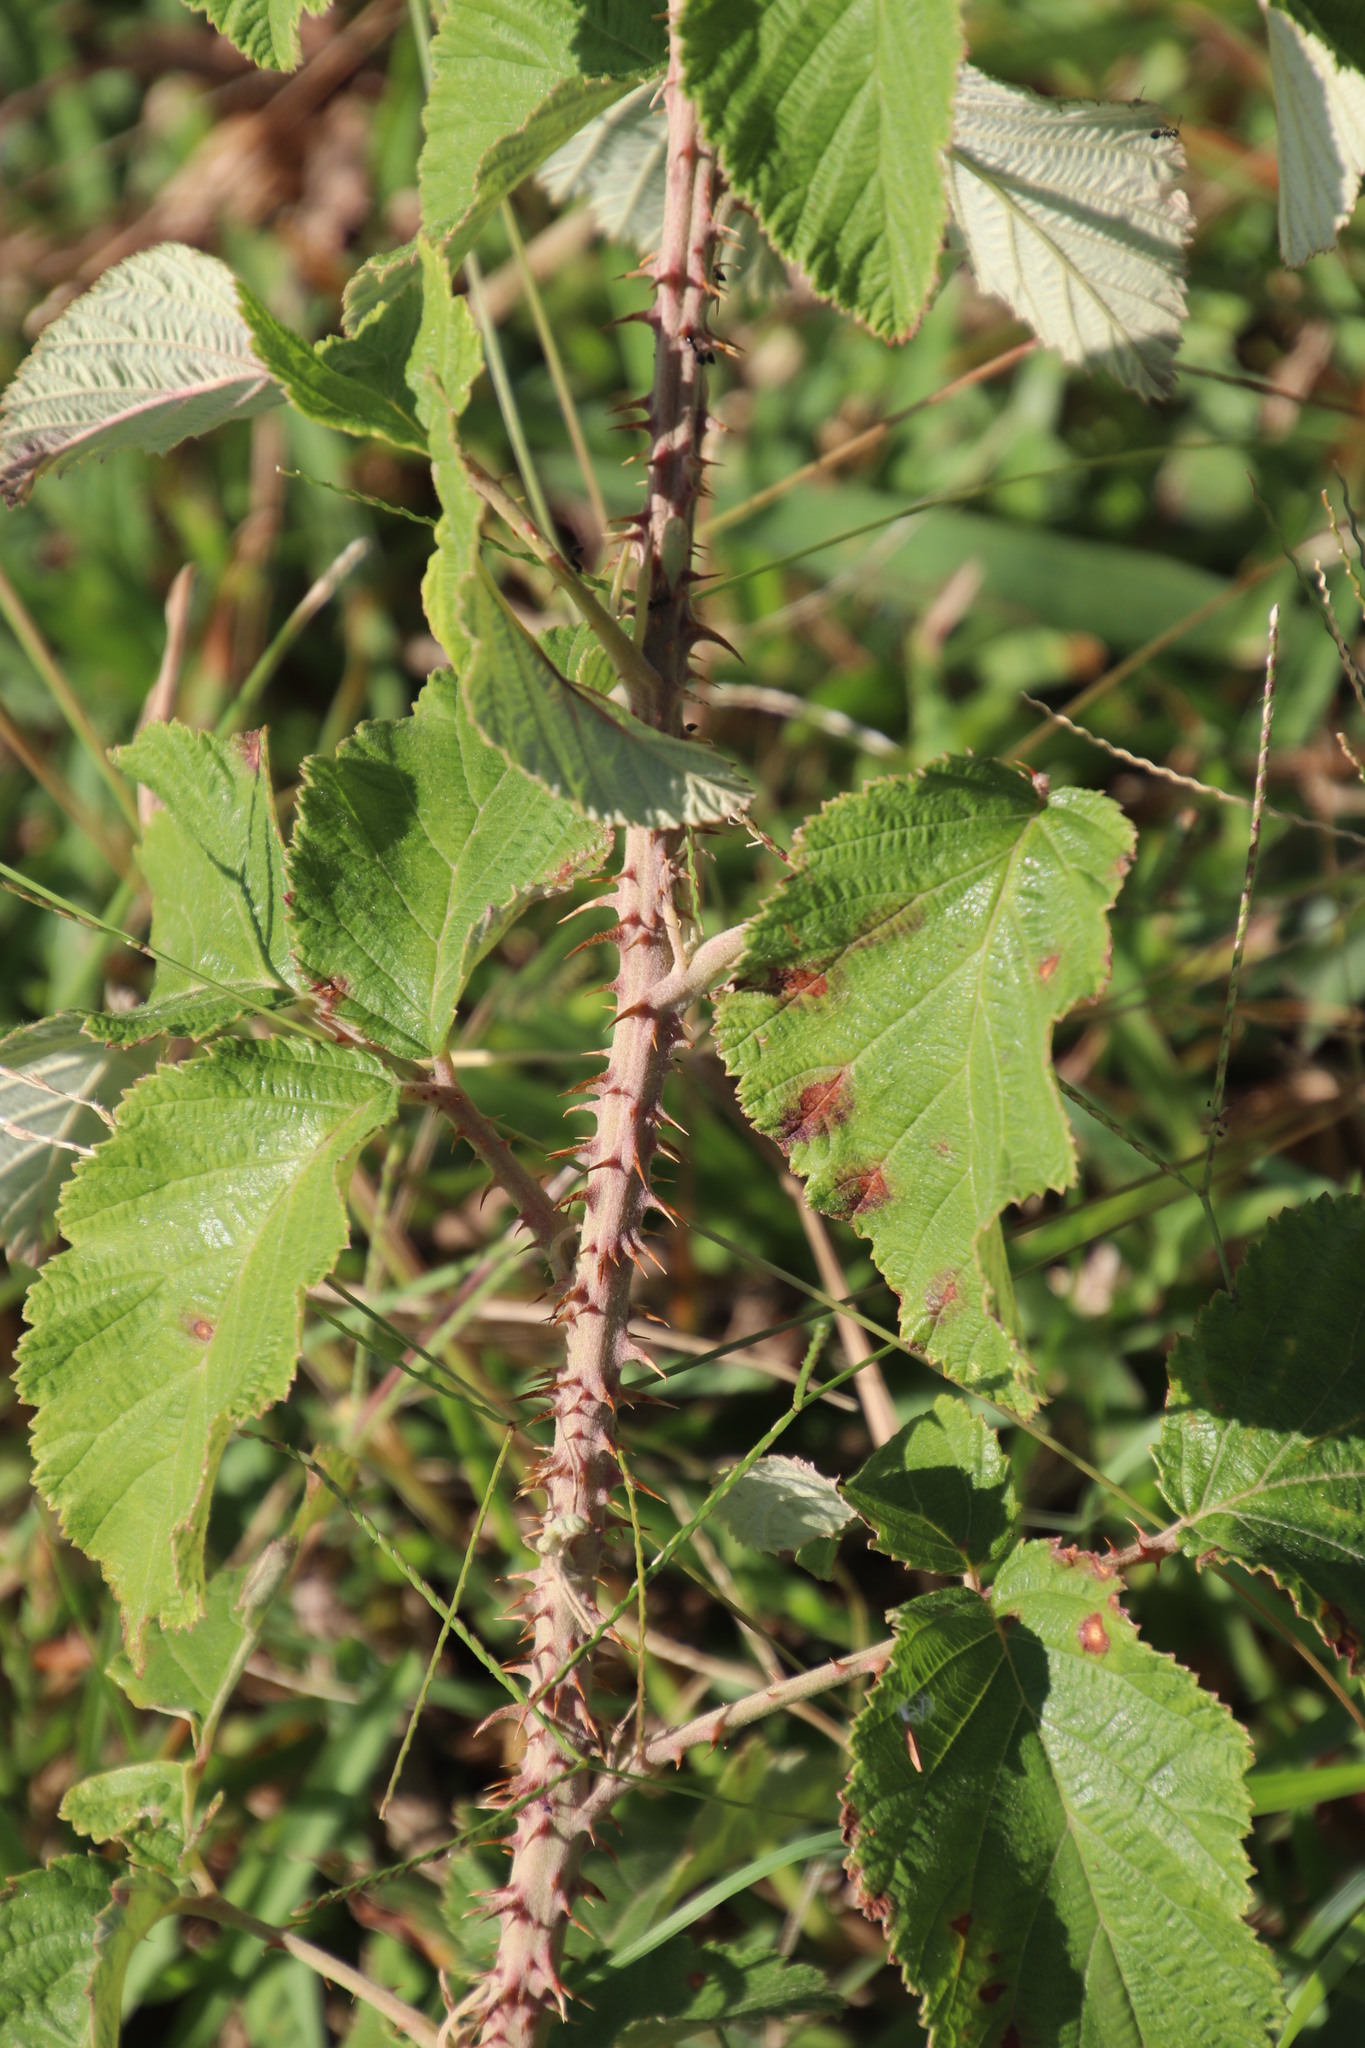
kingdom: Plantae
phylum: Tracheophyta
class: Magnoliopsida
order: Rosales
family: Rosaceae
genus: Rubus
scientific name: Rubus rigidus
